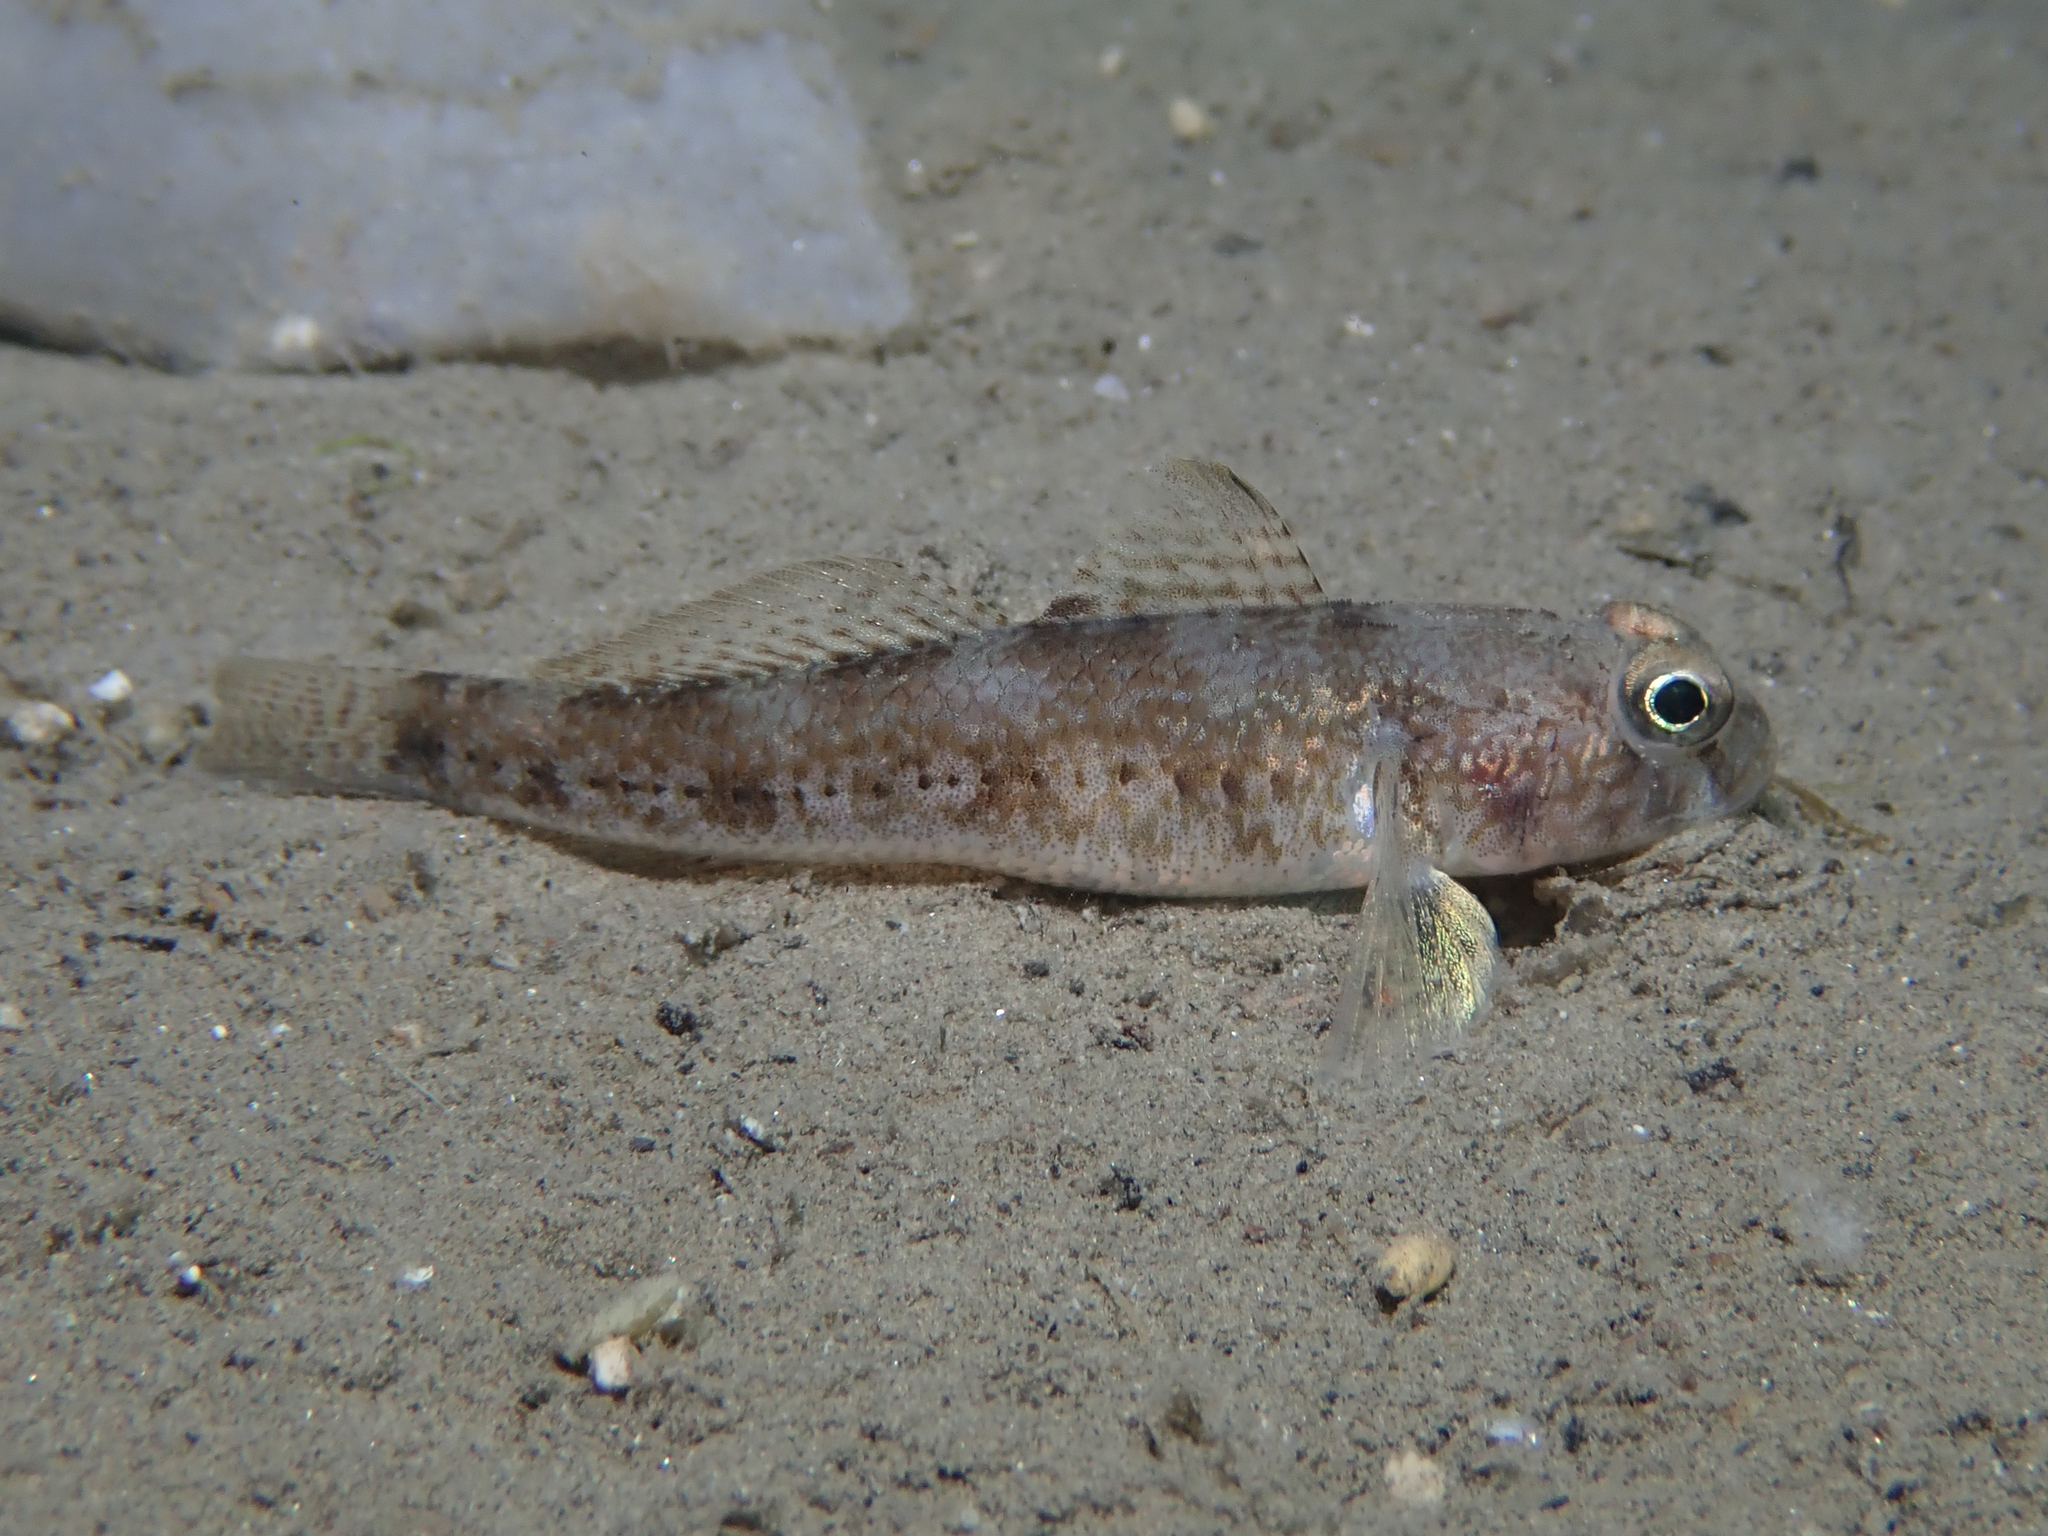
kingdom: Animalia
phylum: Chordata
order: Perciformes
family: Gobiidae
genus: Gobius
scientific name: Gobius niger
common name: Black goby
